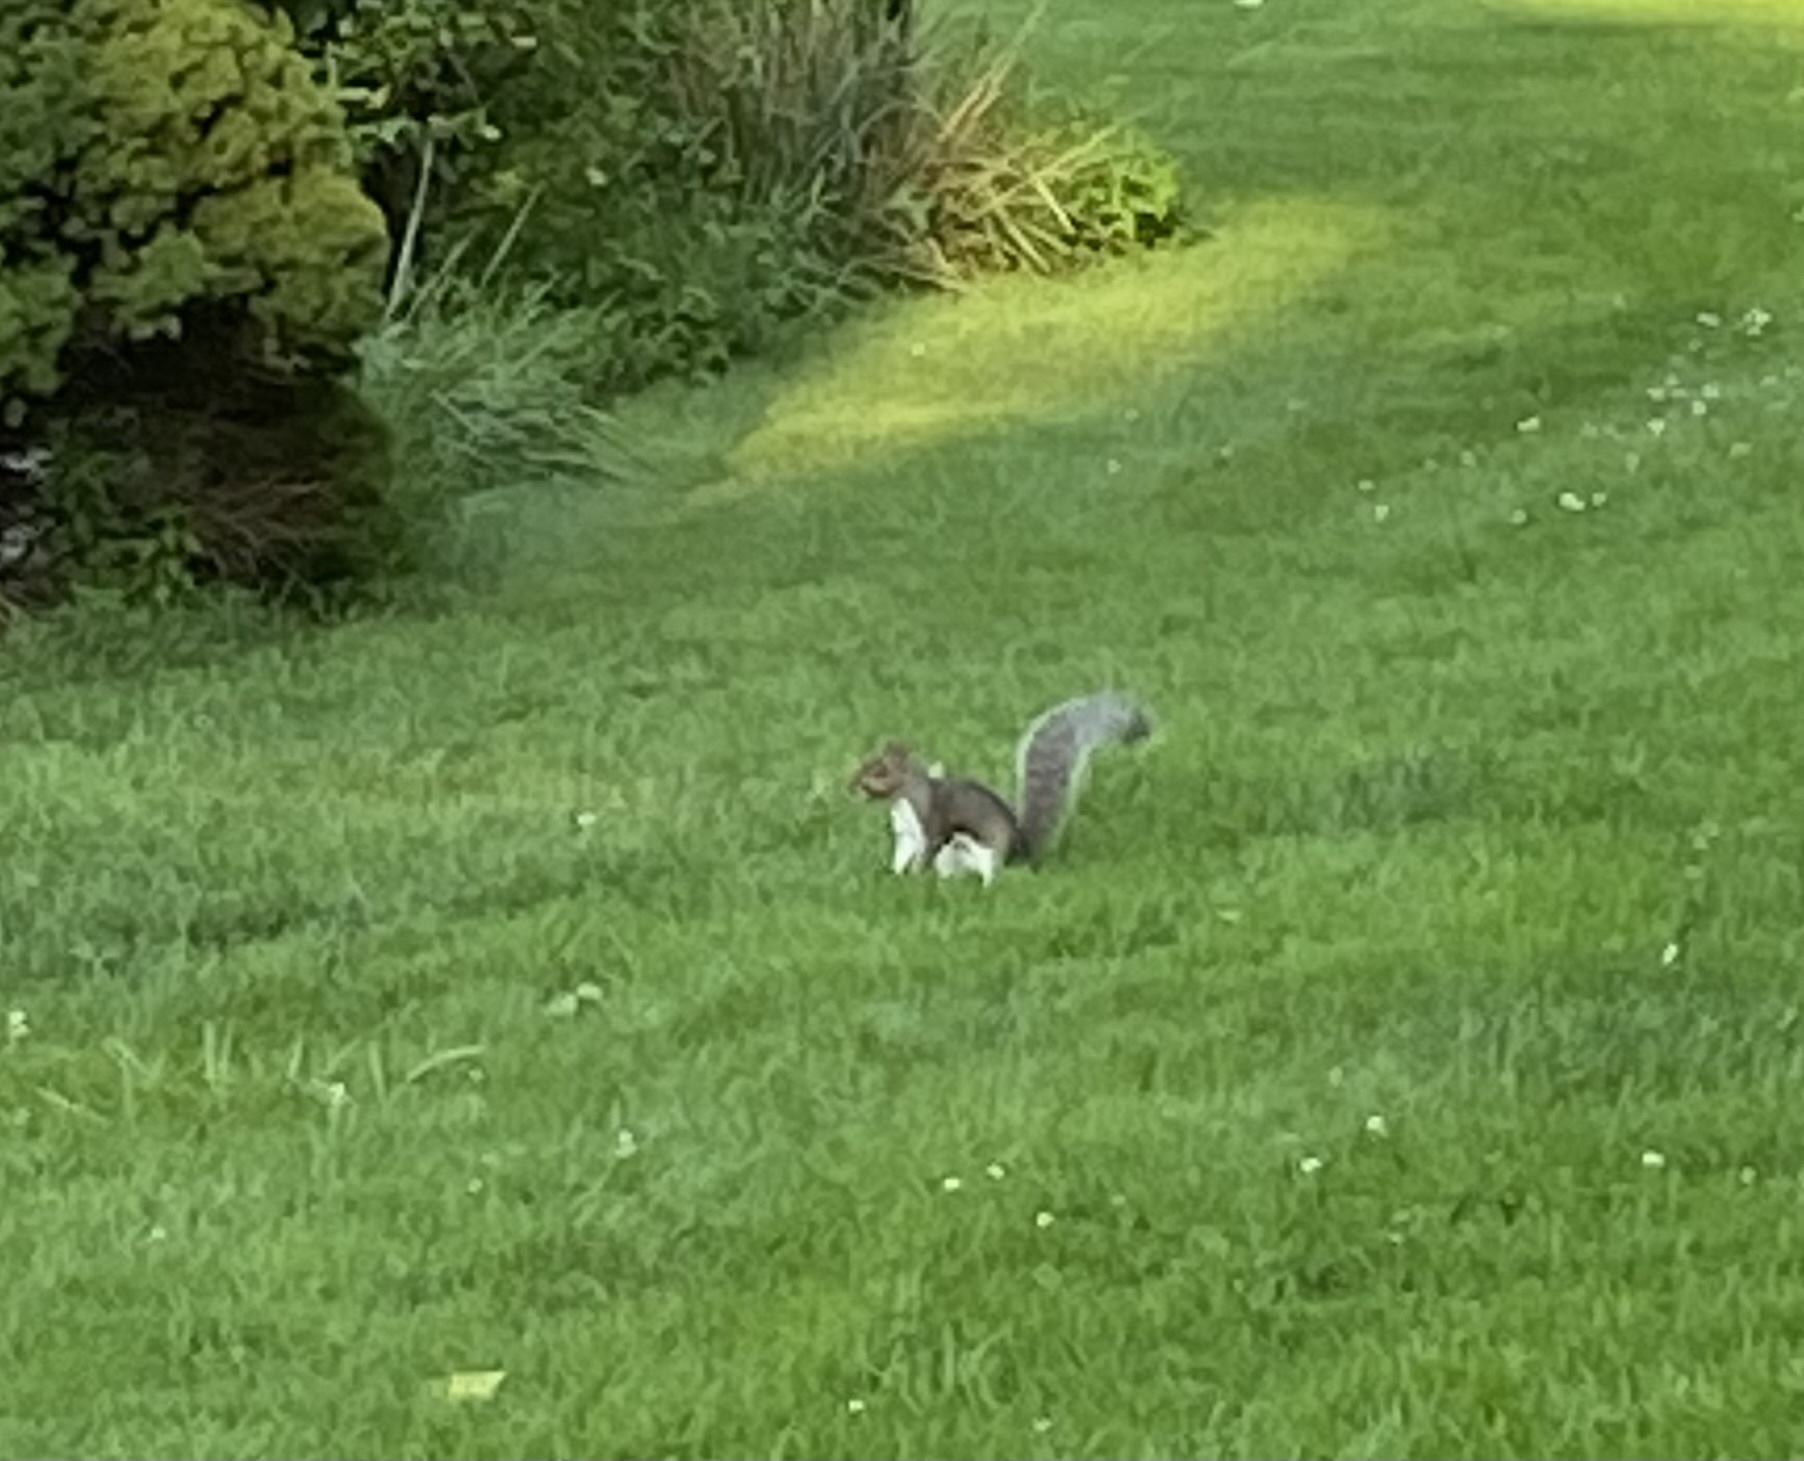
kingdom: Animalia
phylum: Chordata
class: Mammalia
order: Rodentia
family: Sciuridae
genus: Sciurus
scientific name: Sciurus carolinensis
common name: Eastern gray squirrel
